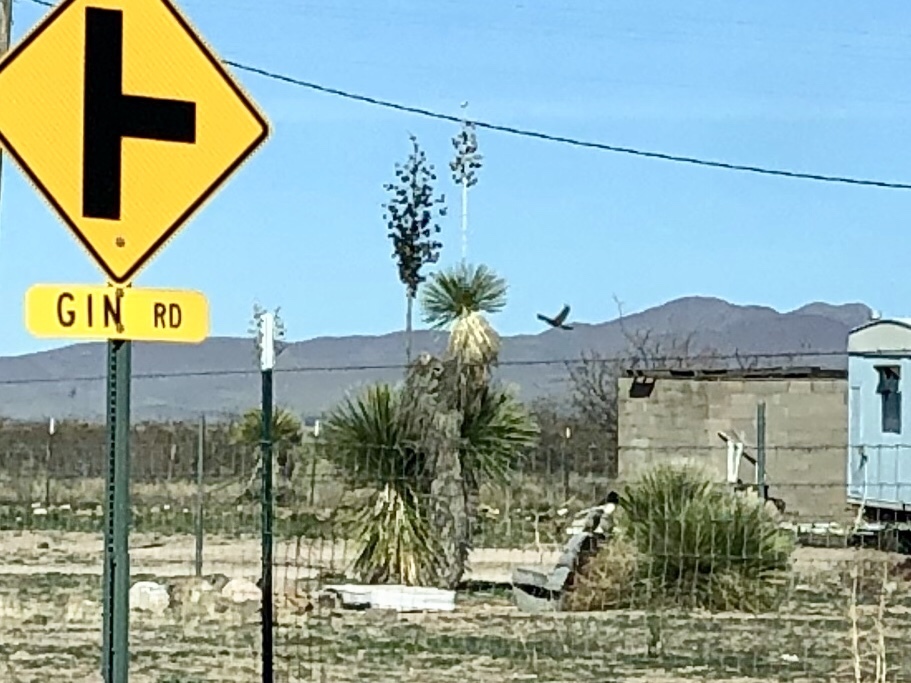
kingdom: Plantae
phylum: Tracheophyta
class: Liliopsida
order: Asparagales
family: Asparagaceae
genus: Yucca
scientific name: Yucca elata
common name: Palmella
